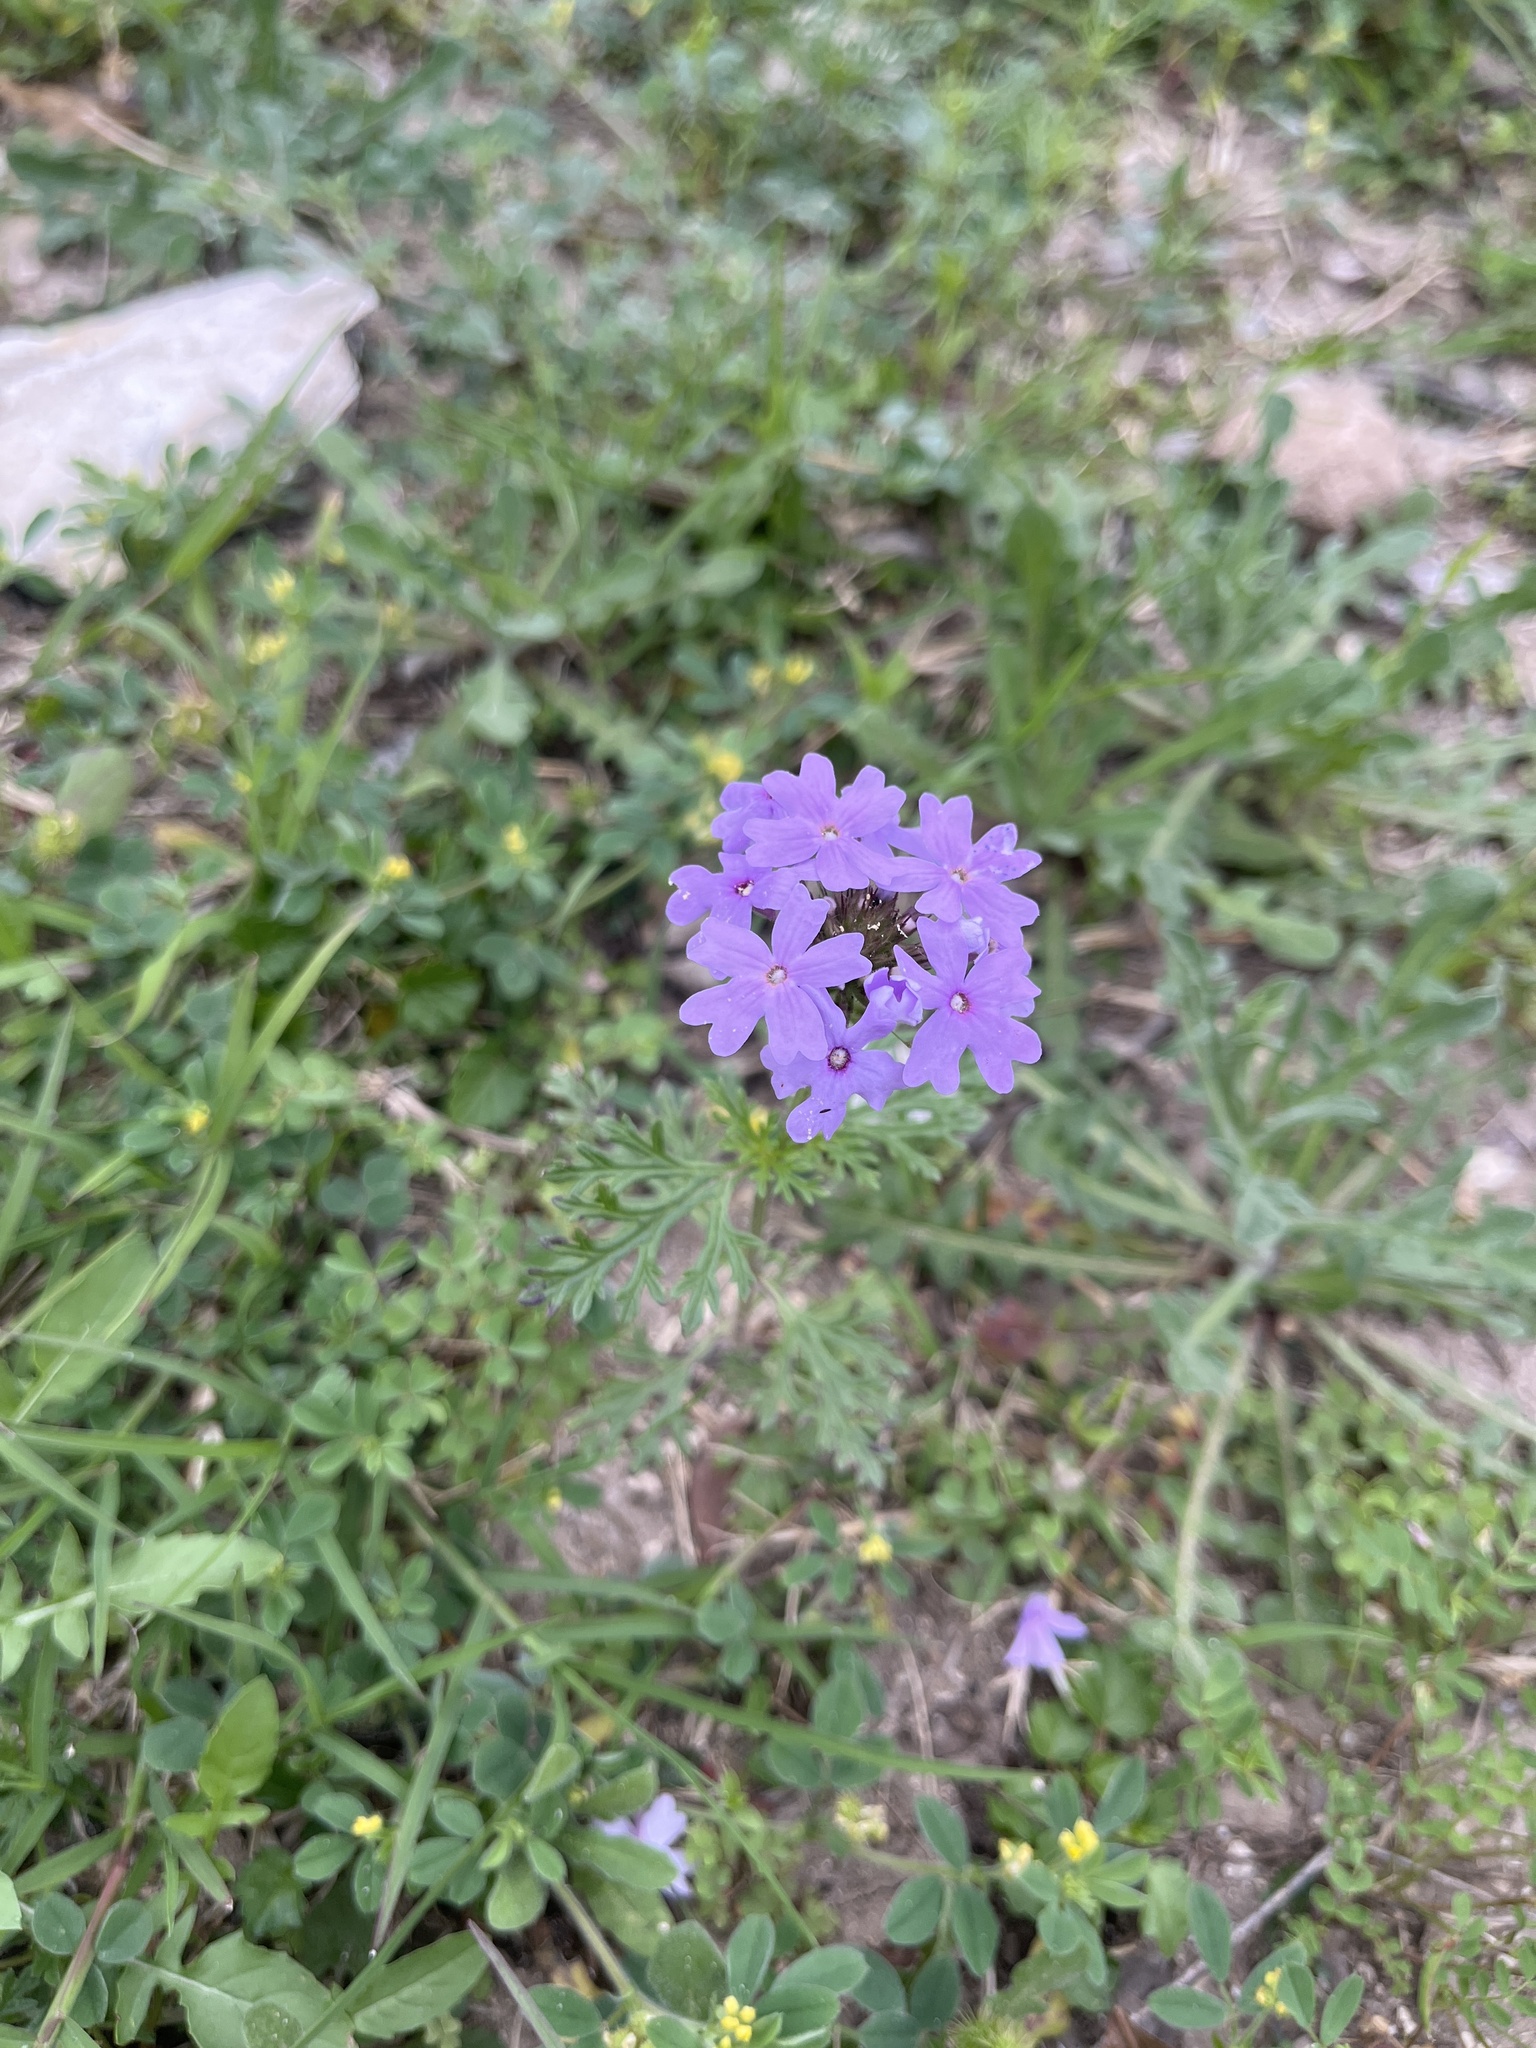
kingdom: Plantae
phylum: Tracheophyta
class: Magnoliopsida
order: Lamiales
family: Verbenaceae
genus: Verbena
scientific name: Verbena bipinnatifida
